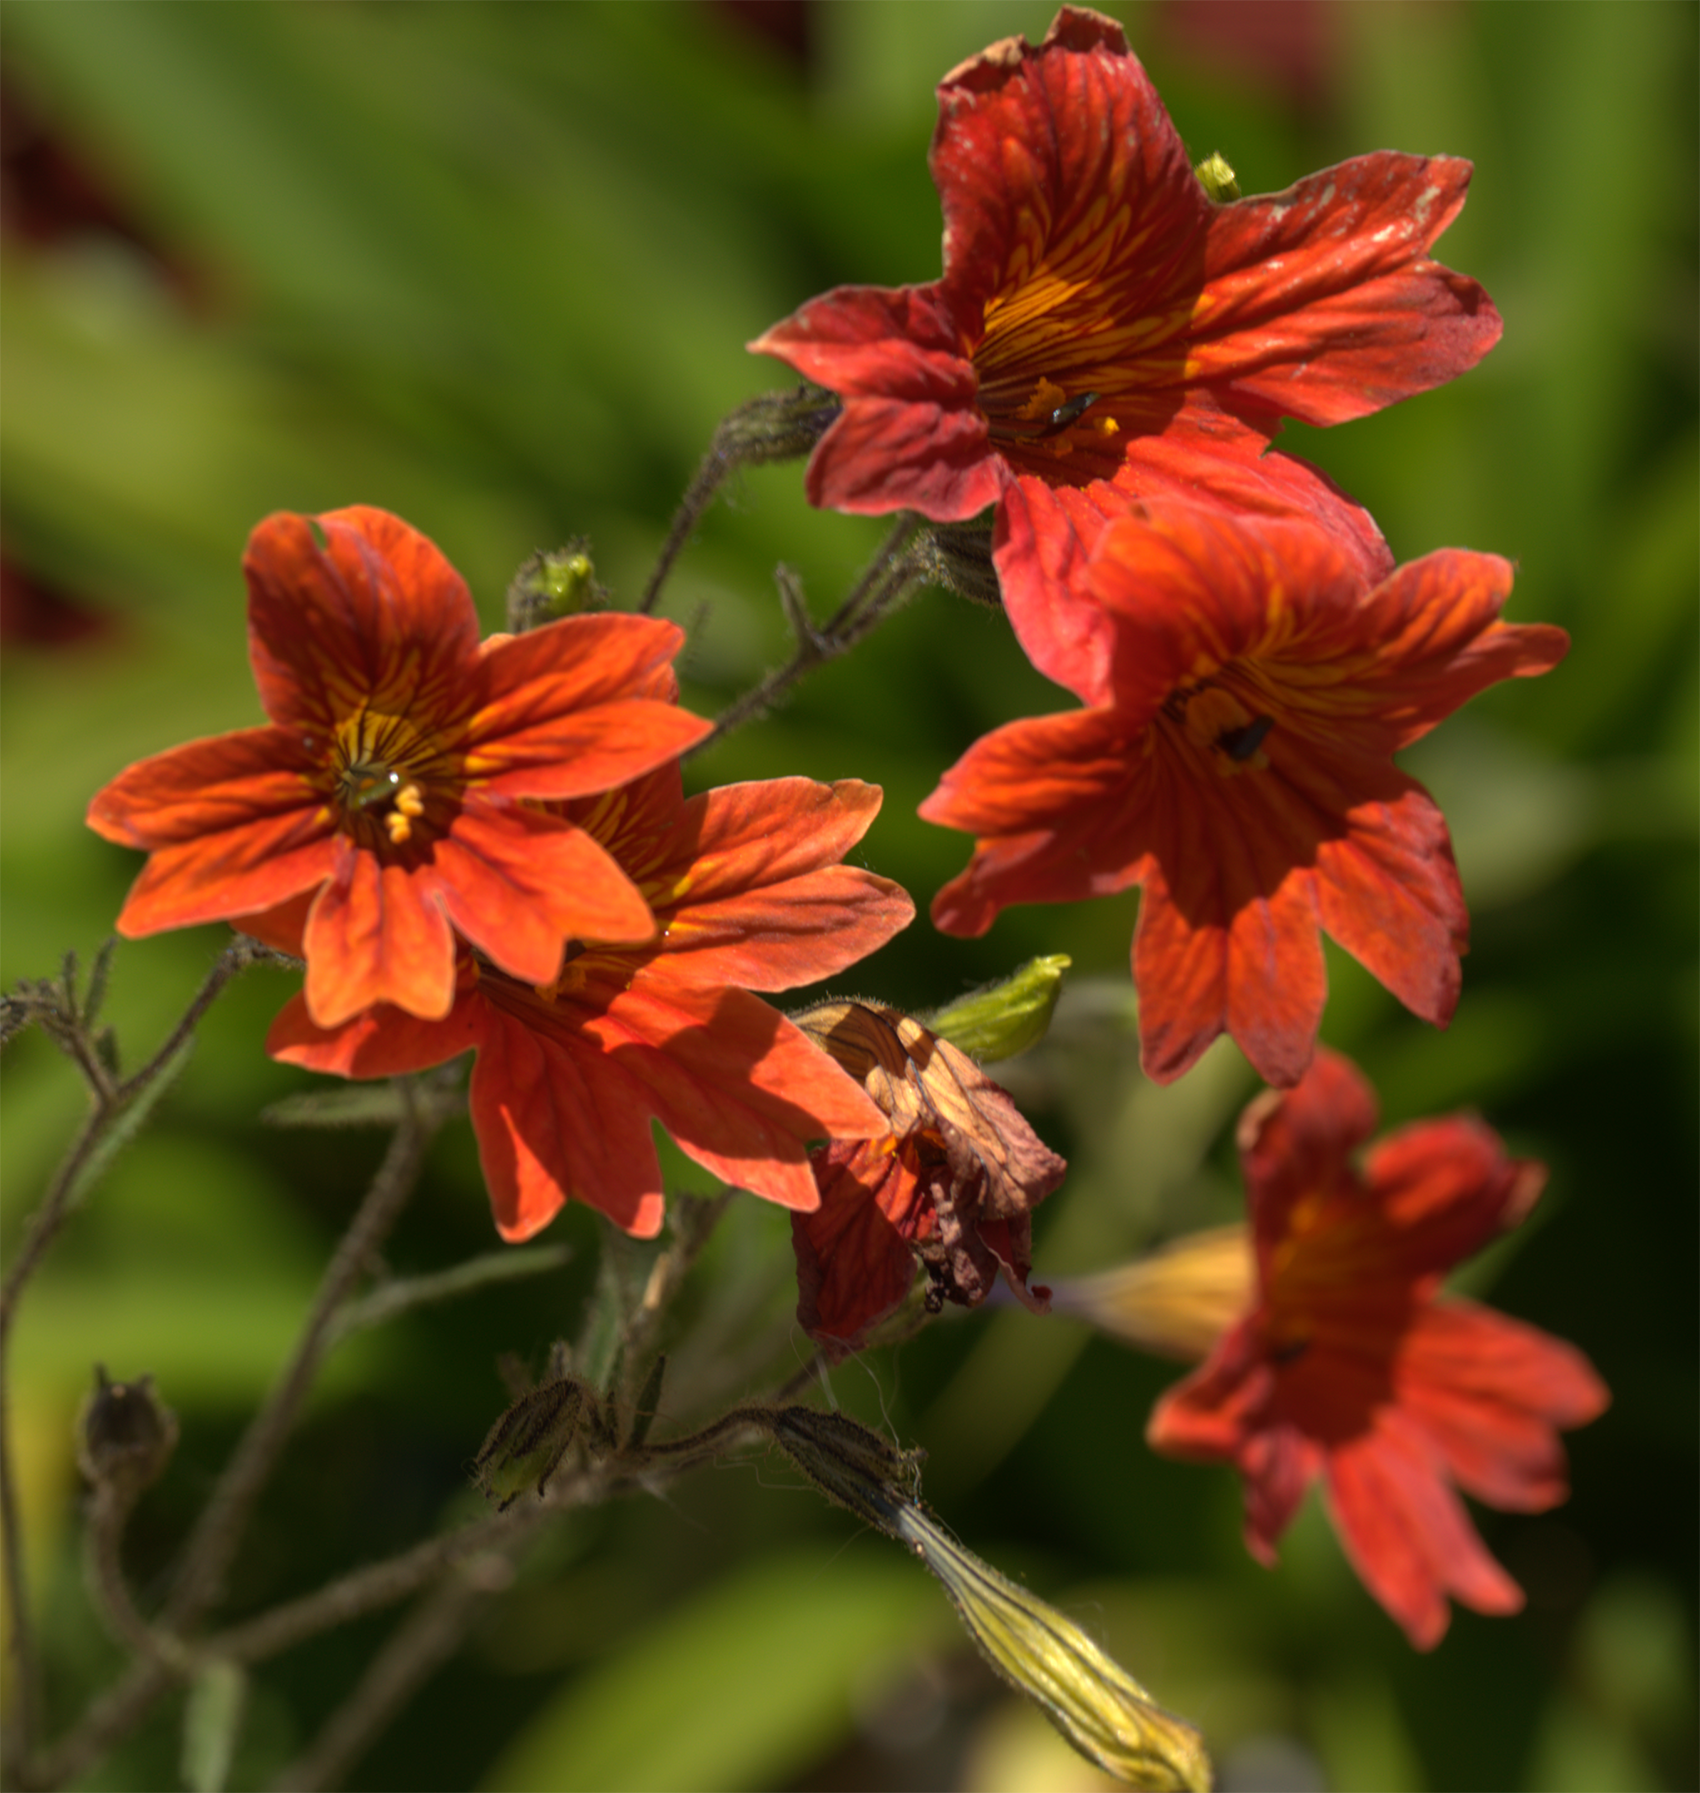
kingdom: Plantae
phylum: Tracheophyta
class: Magnoliopsida
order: Solanales
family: Solanaceae
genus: Salpiglossis
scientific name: Salpiglossis sinuata
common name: Painted-tongue
